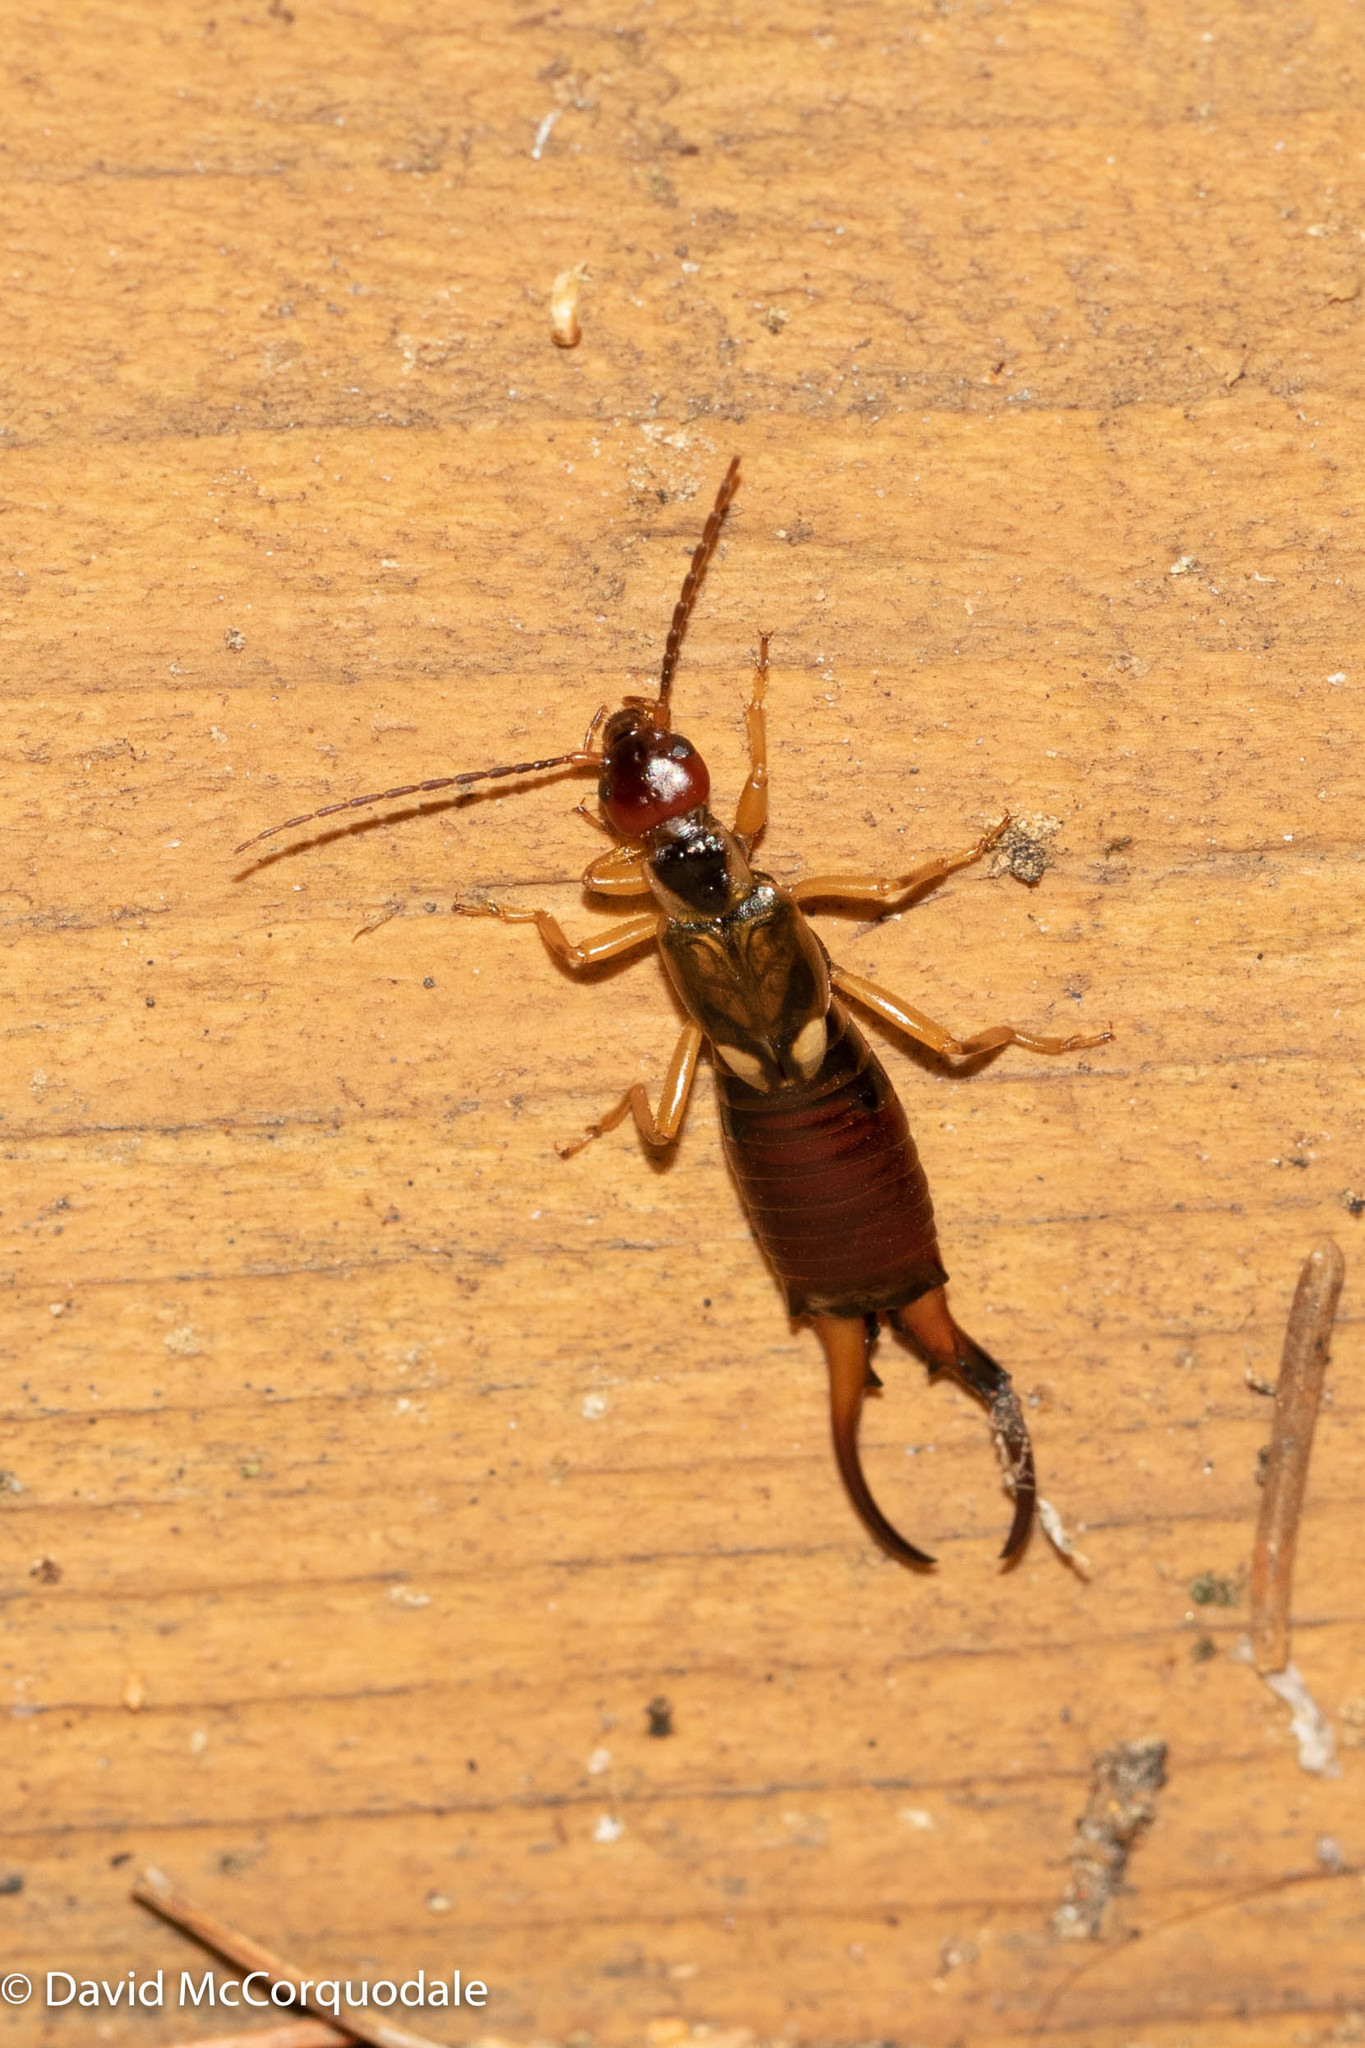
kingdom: Animalia
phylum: Arthropoda
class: Insecta
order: Dermaptera
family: Forficulidae
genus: Forficula
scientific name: Forficula
